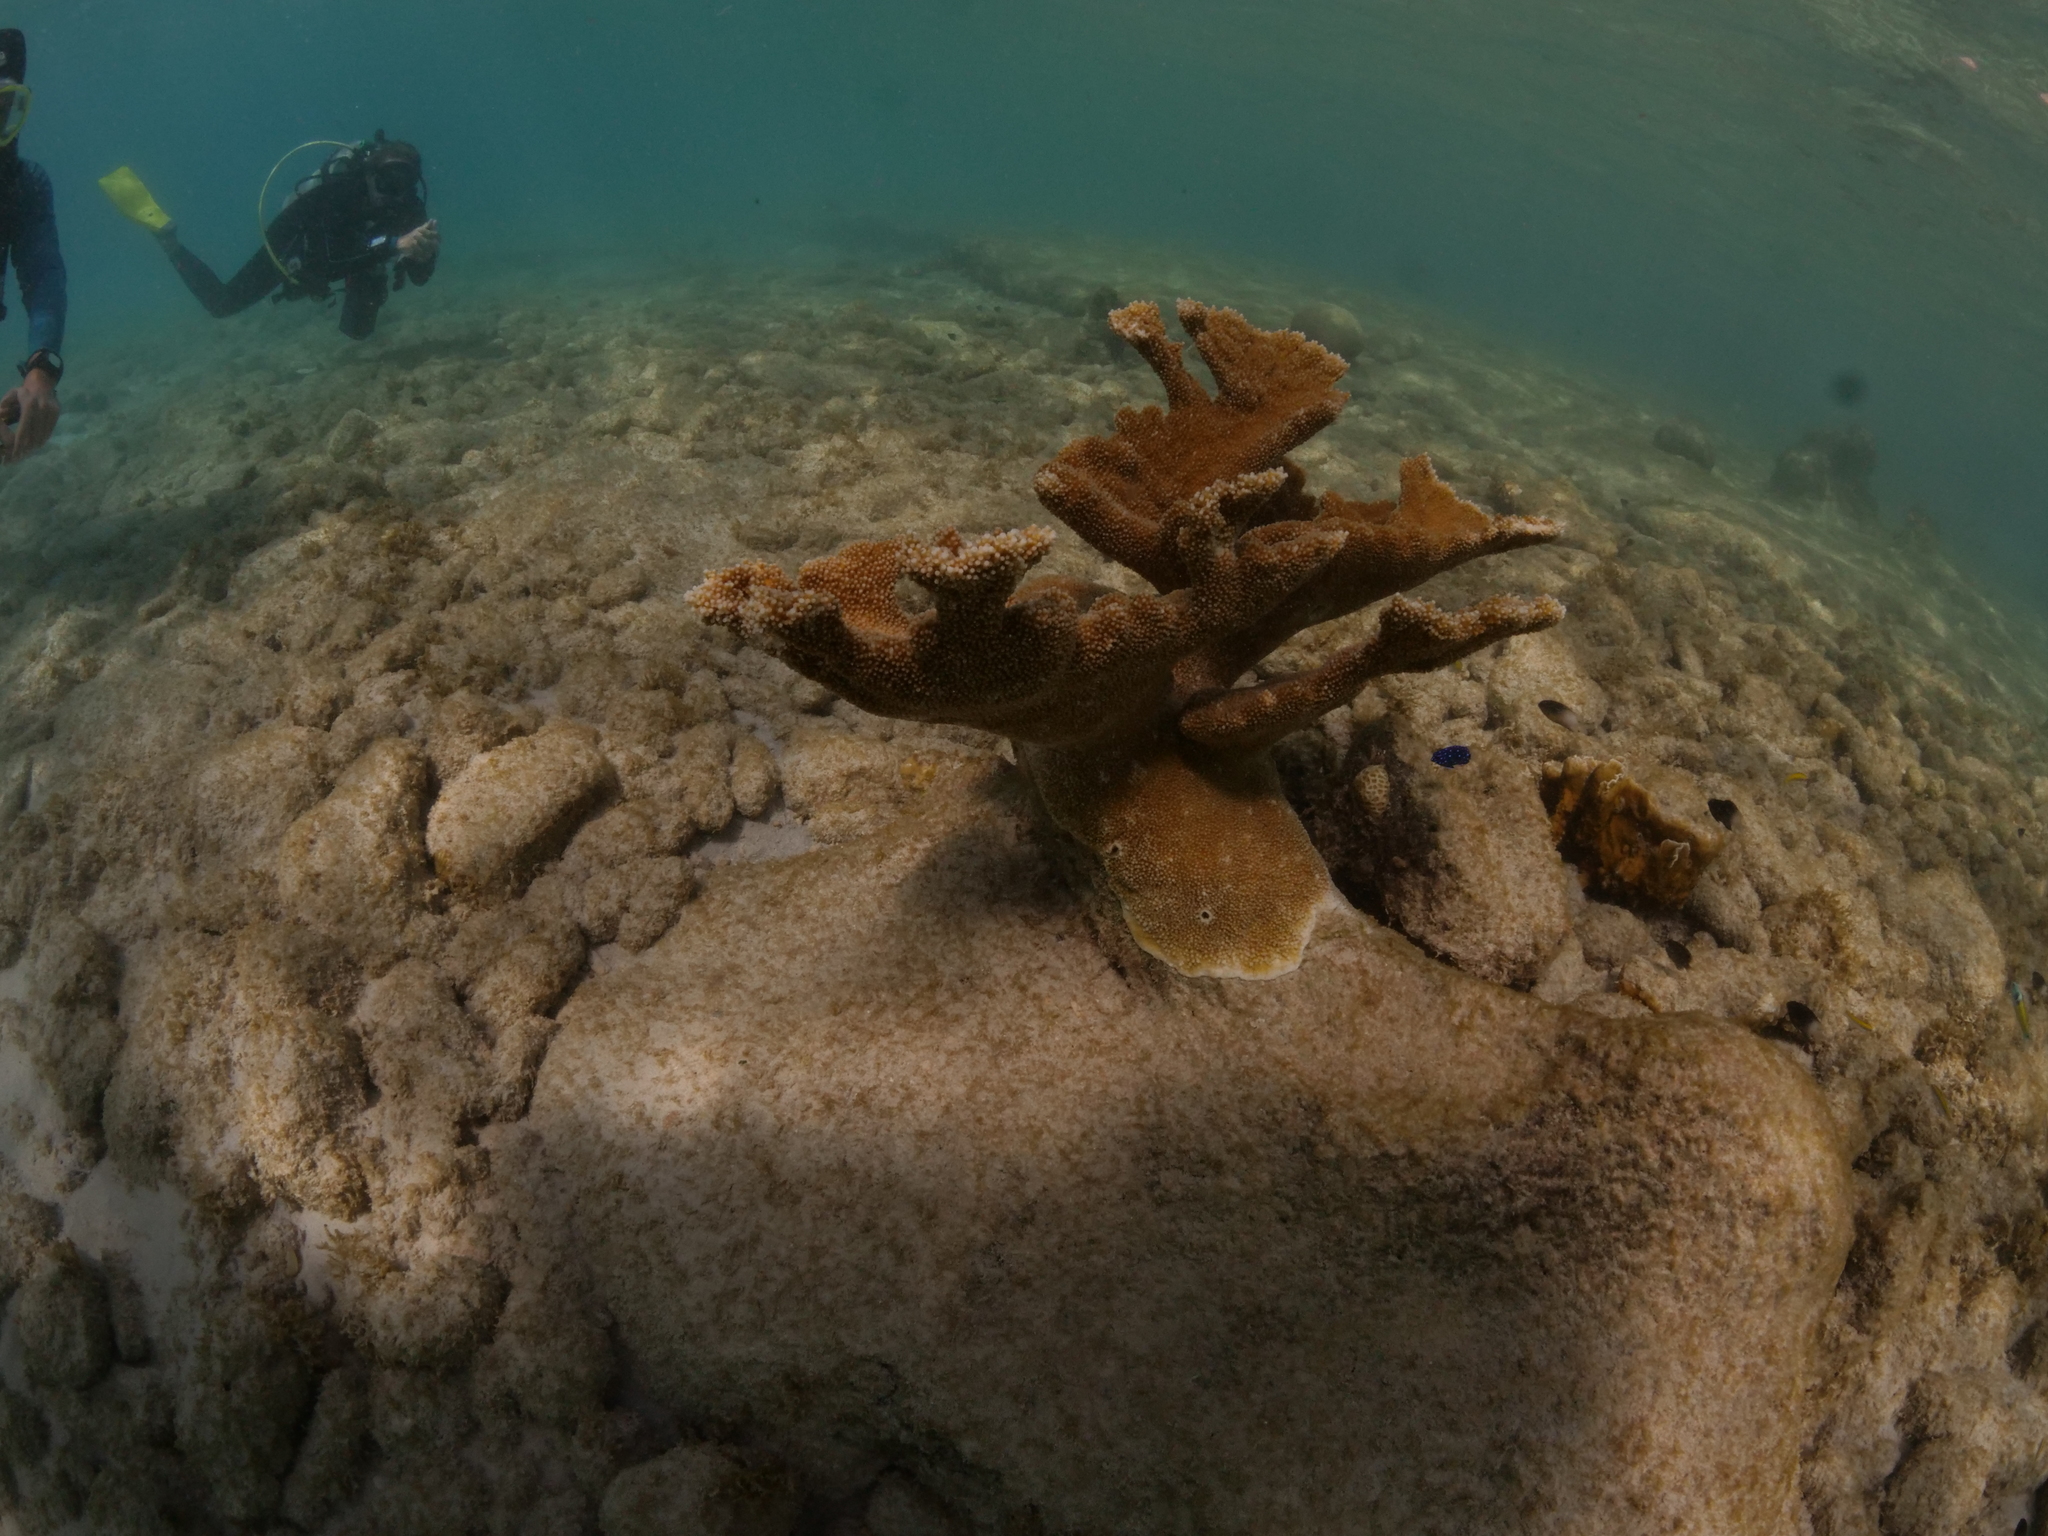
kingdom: Animalia
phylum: Cnidaria
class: Anthozoa
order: Scleractinia
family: Acroporidae
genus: Acropora
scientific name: Acropora palmata
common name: Elkhorn coral
